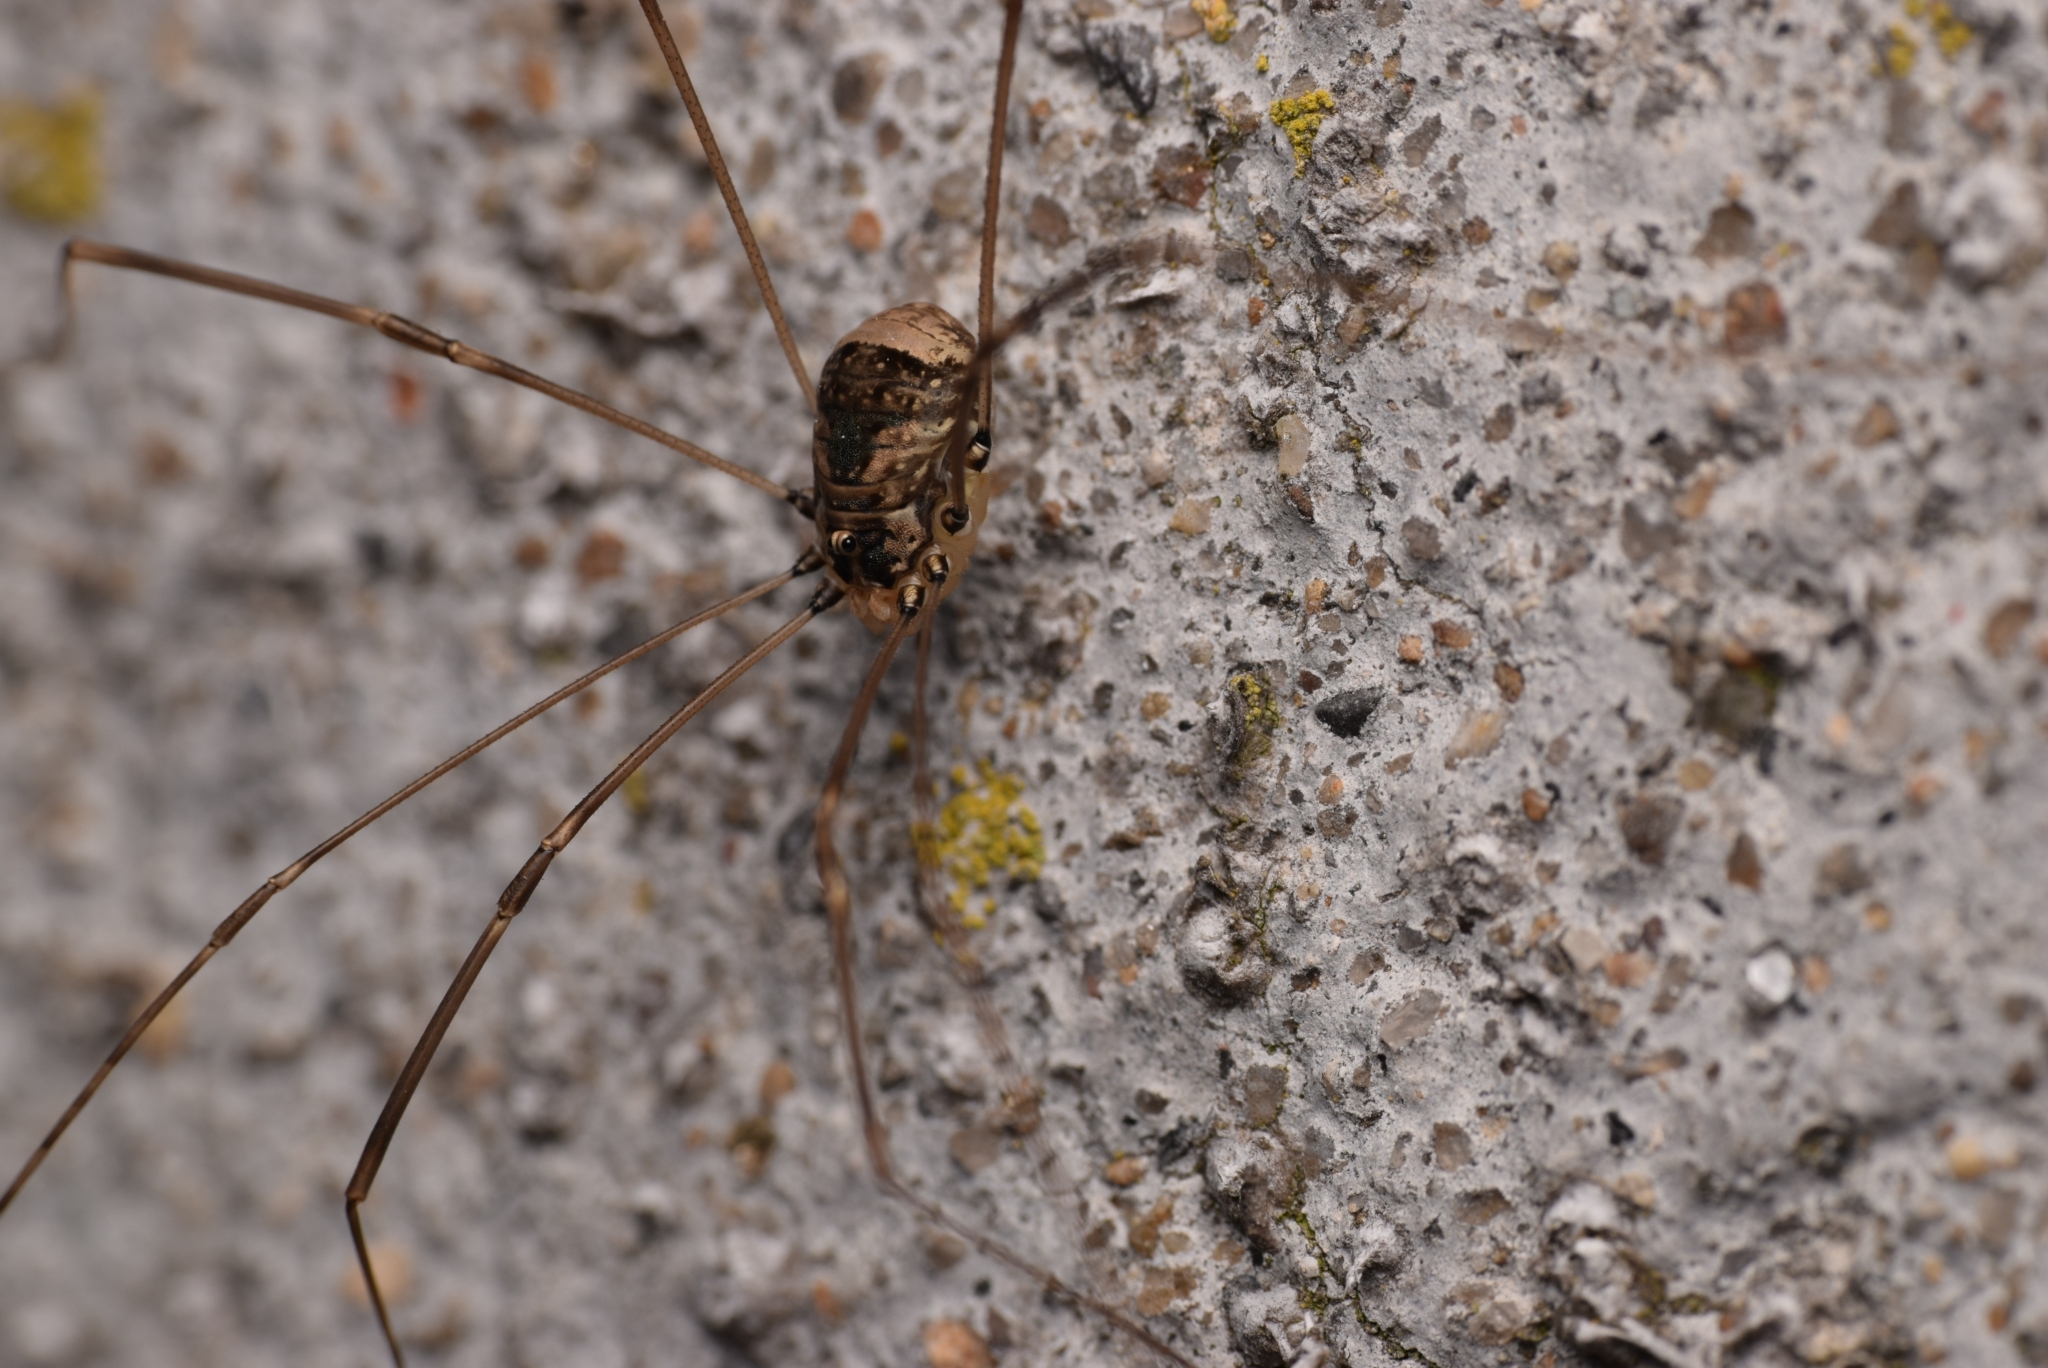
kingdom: Animalia
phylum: Arthropoda
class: Arachnida
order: Opiliones
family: Sclerosomatidae
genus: Leiobunum
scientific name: Leiobunum blackwalli
